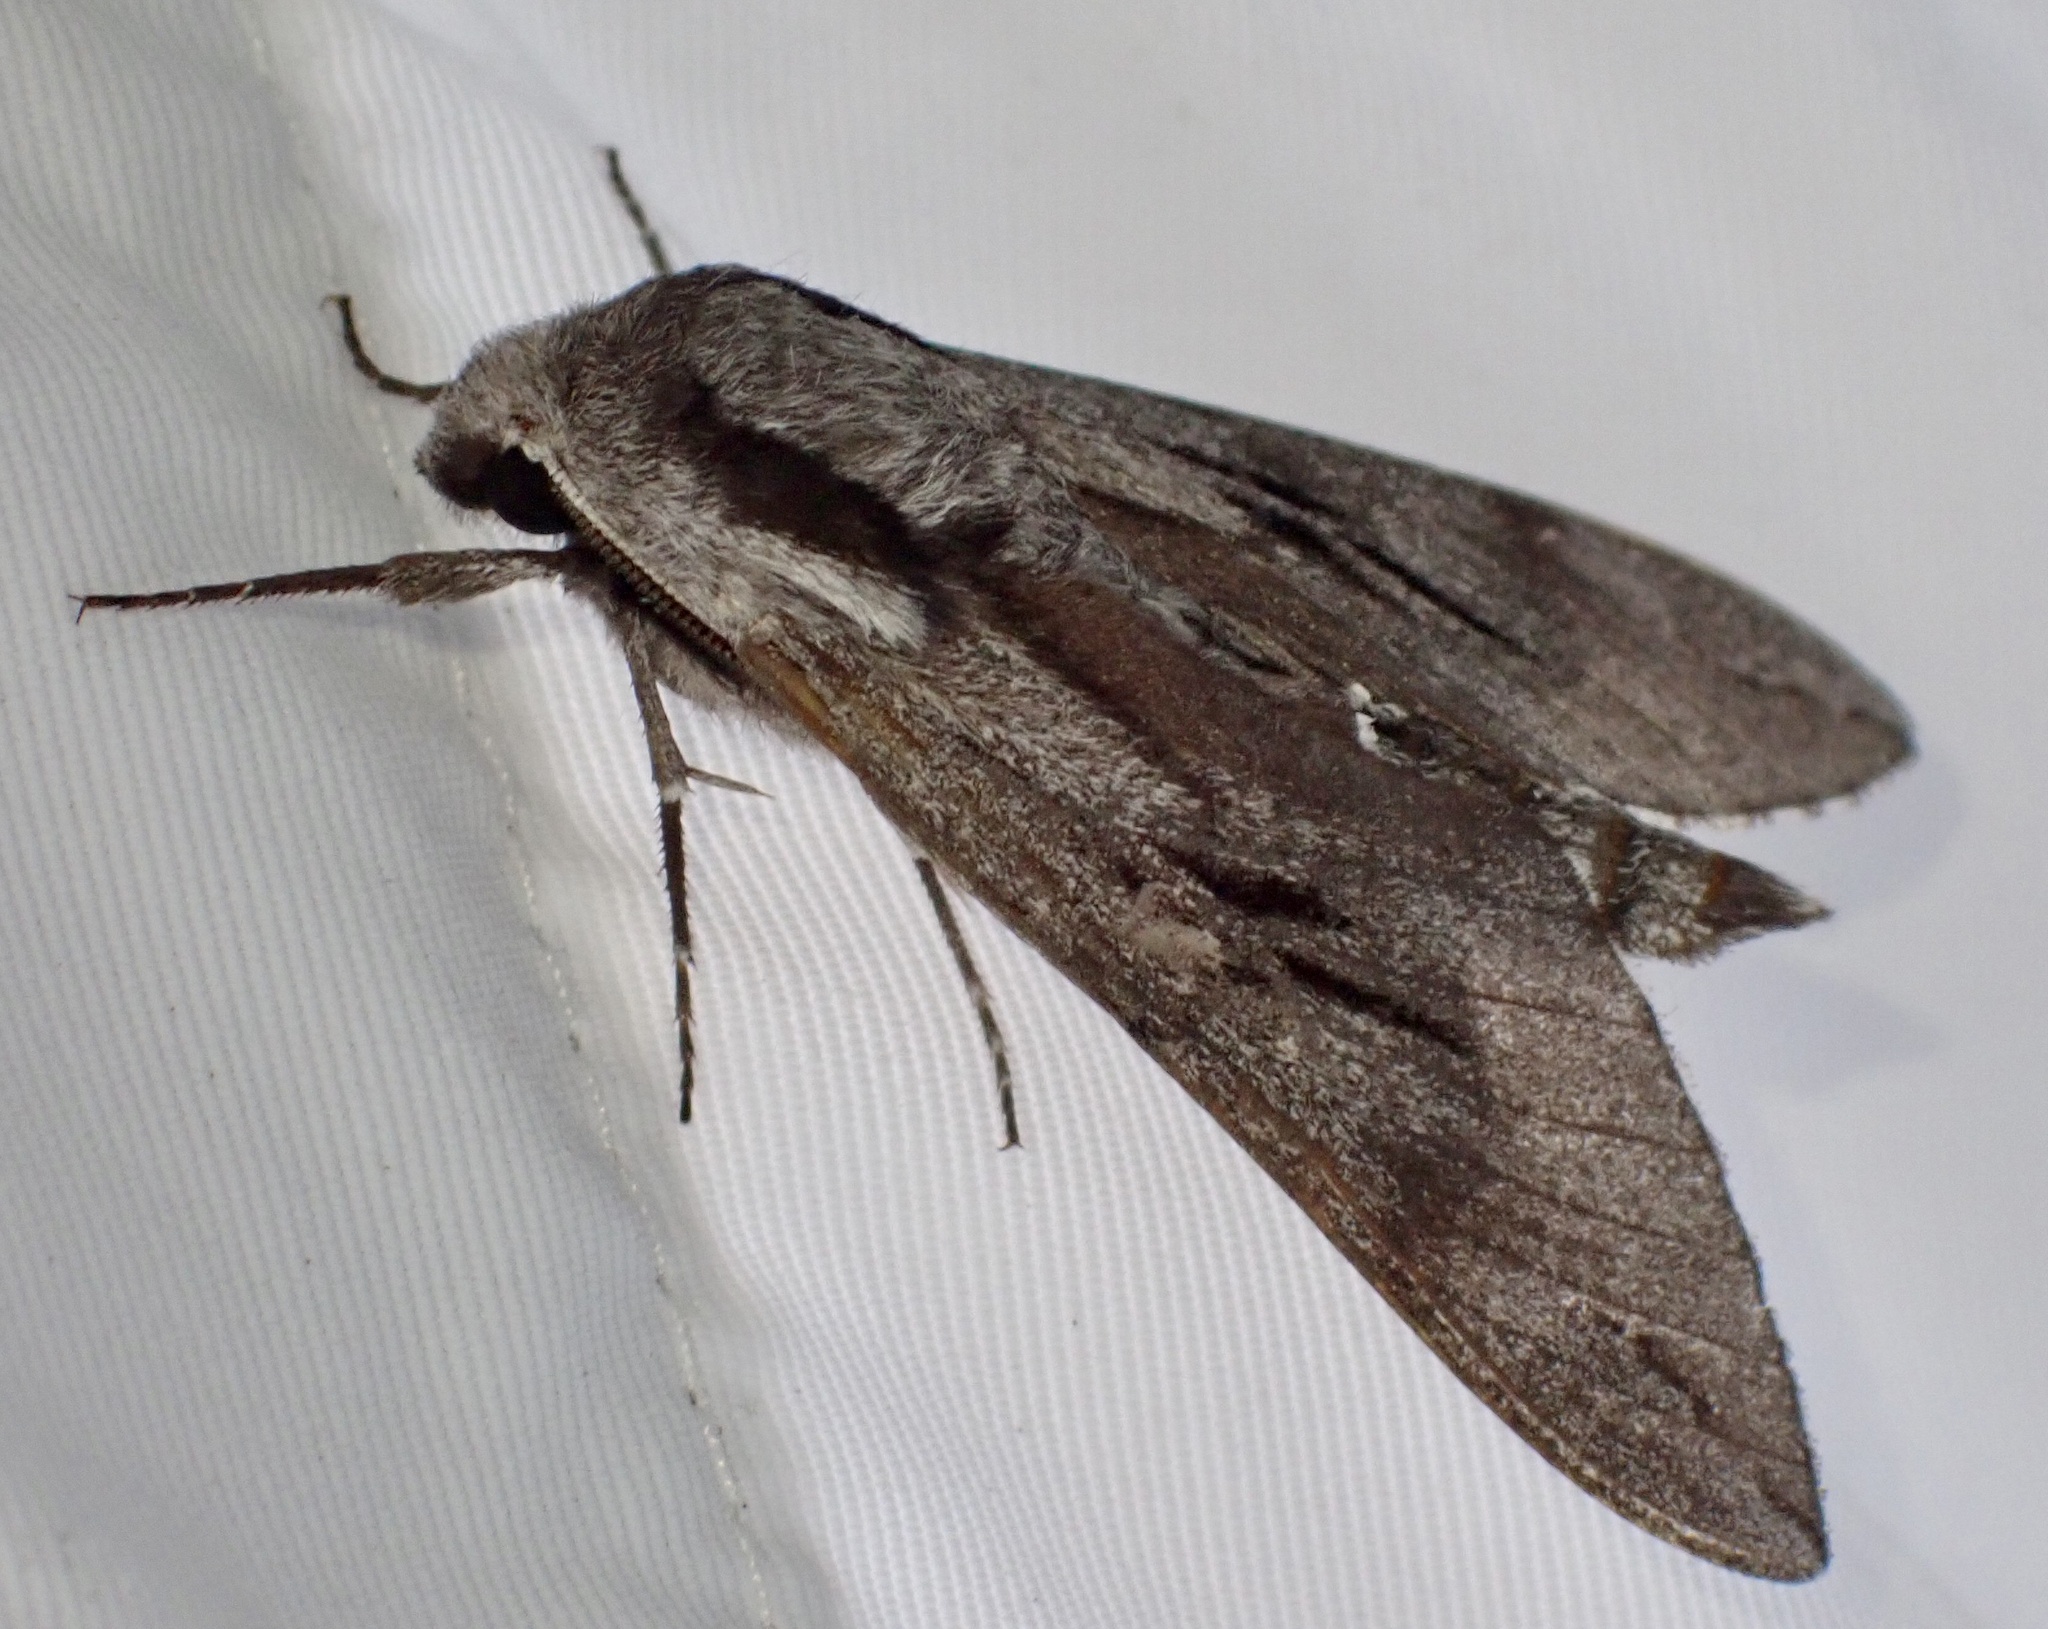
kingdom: Animalia
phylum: Arthropoda
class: Insecta
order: Lepidoptera
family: Sphingidae
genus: Sphinx
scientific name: Sphinx pinastri
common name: Pine hawk-moth
